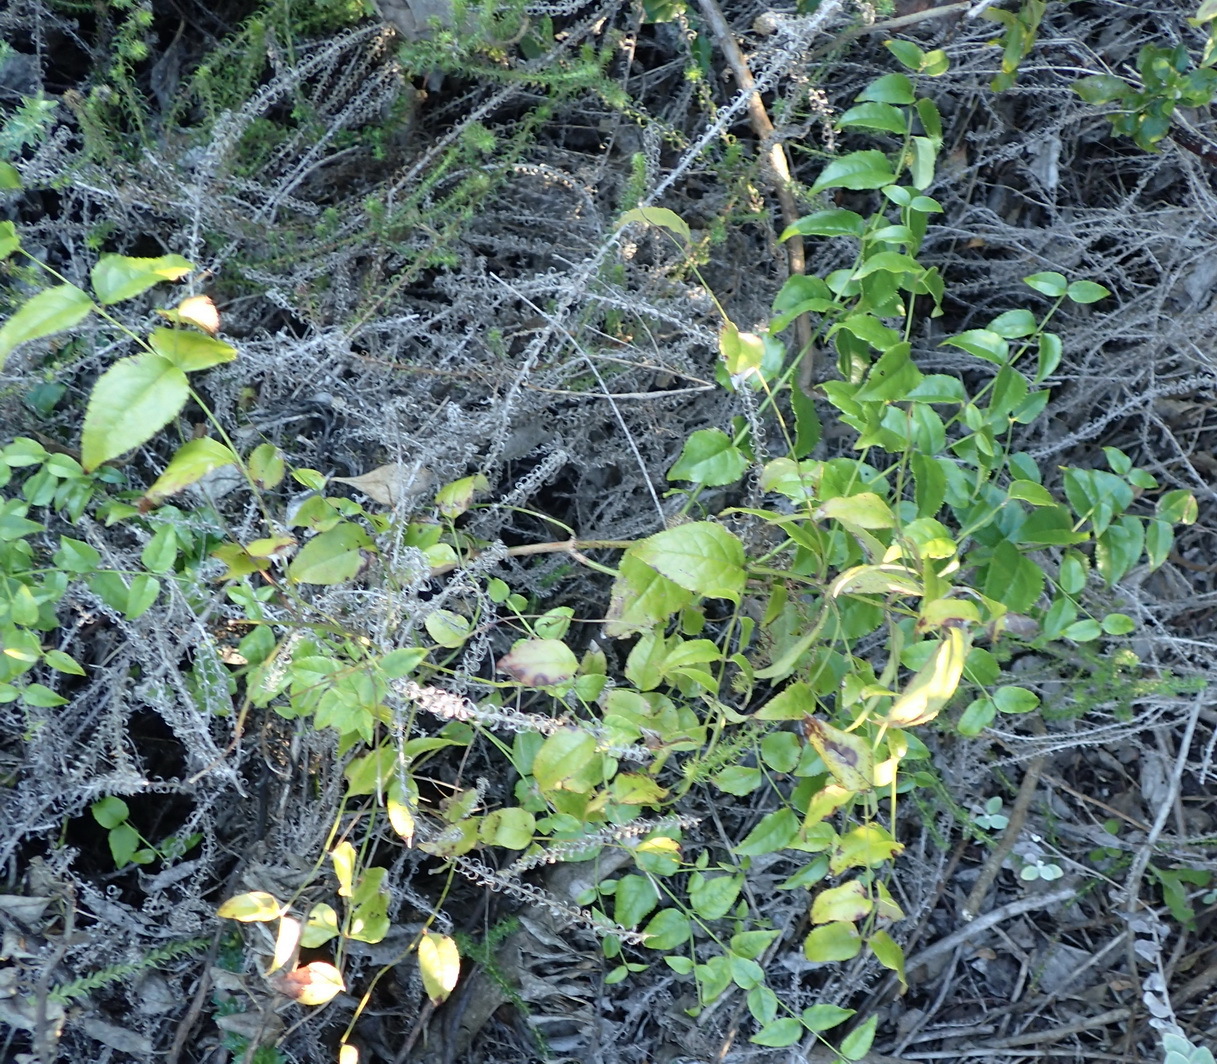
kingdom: Plantae
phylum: Tracheophyta
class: Magnoliopsida
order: Lamiales
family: Stilbaceae
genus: Halleria
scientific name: Halleria lucida
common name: Tree fuschia
